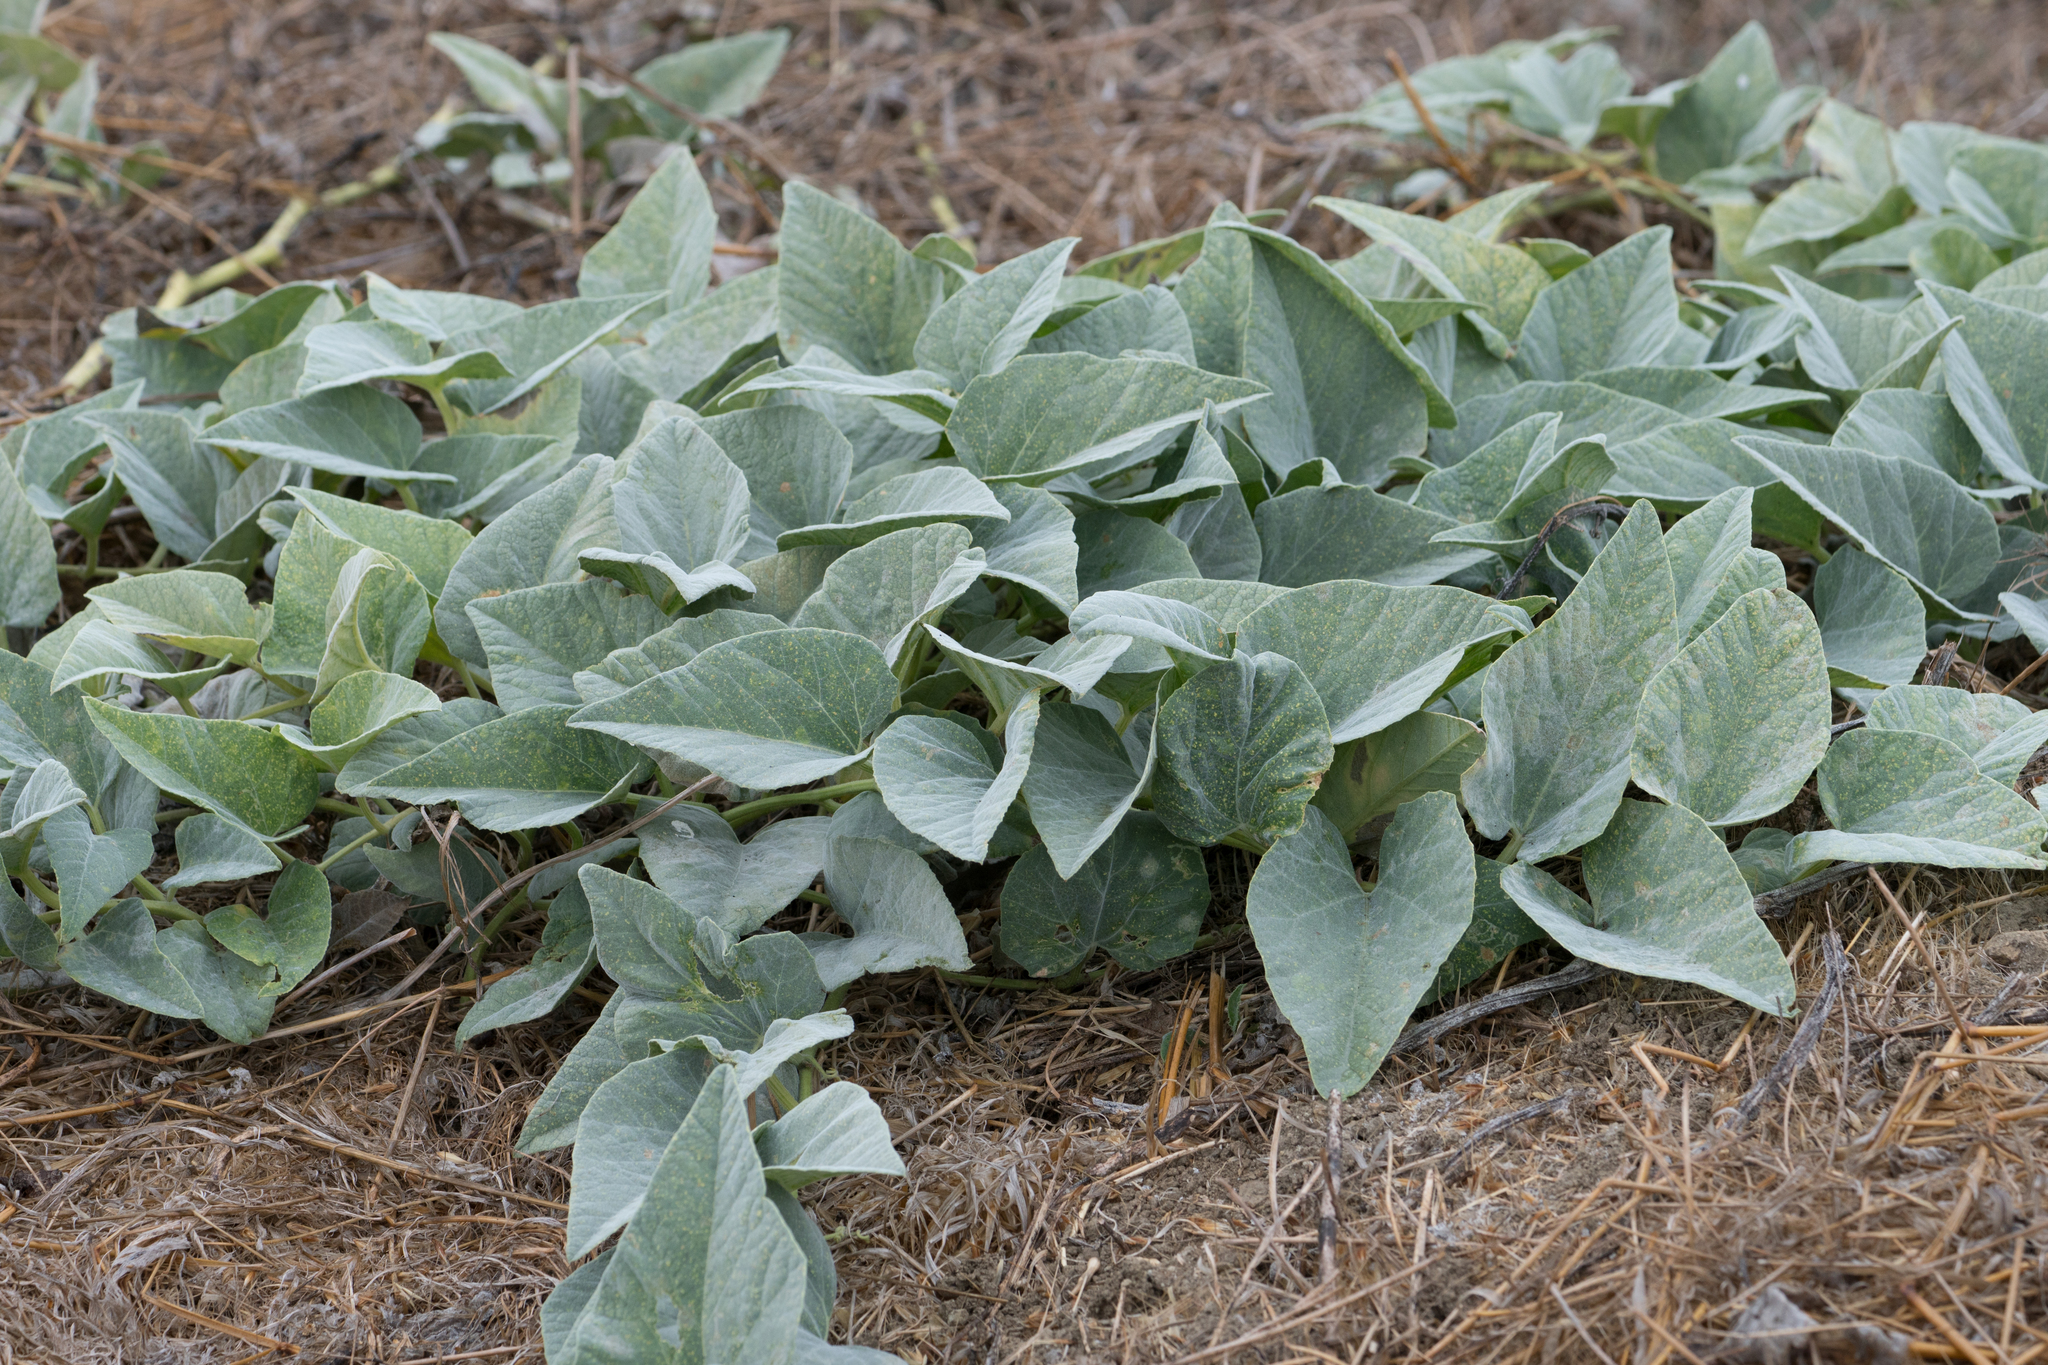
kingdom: Plantae
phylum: Tracheophyta
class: Magnoliopsida
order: Cucurbitales
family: Cucurbitaceae
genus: Cucurbita
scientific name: Cucurbita foetidissima
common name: Buffalo gourd
